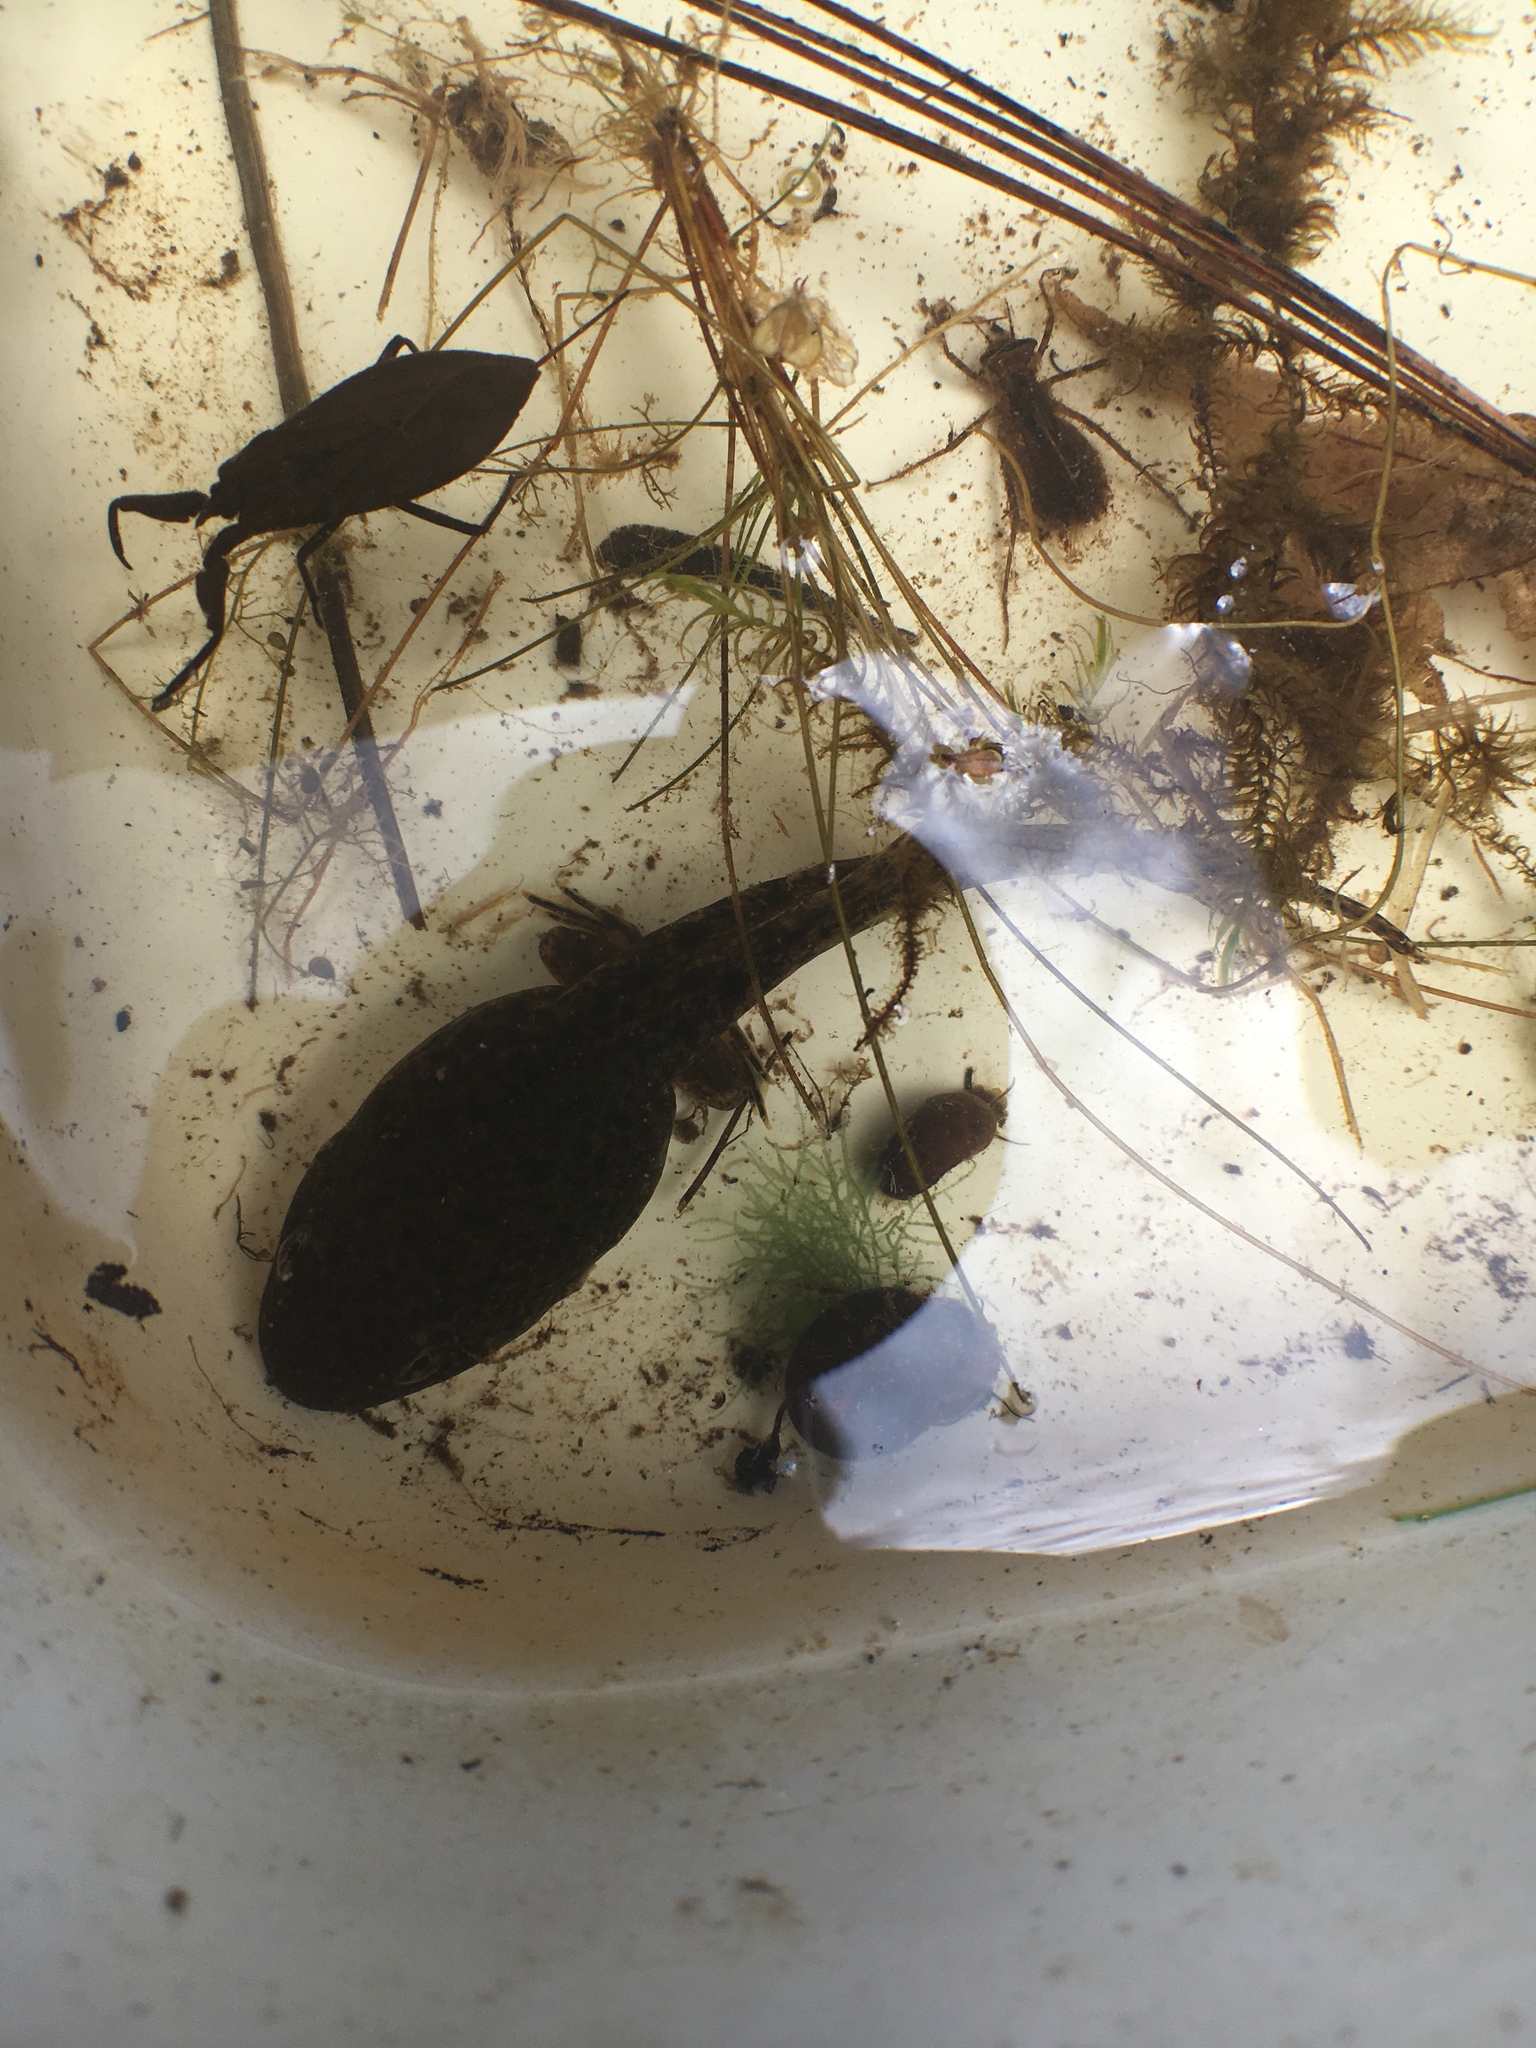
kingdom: Animalia
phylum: Chordata
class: Amphibia
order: Anura
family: Ranidae
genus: Lithobates
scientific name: Lithobates
